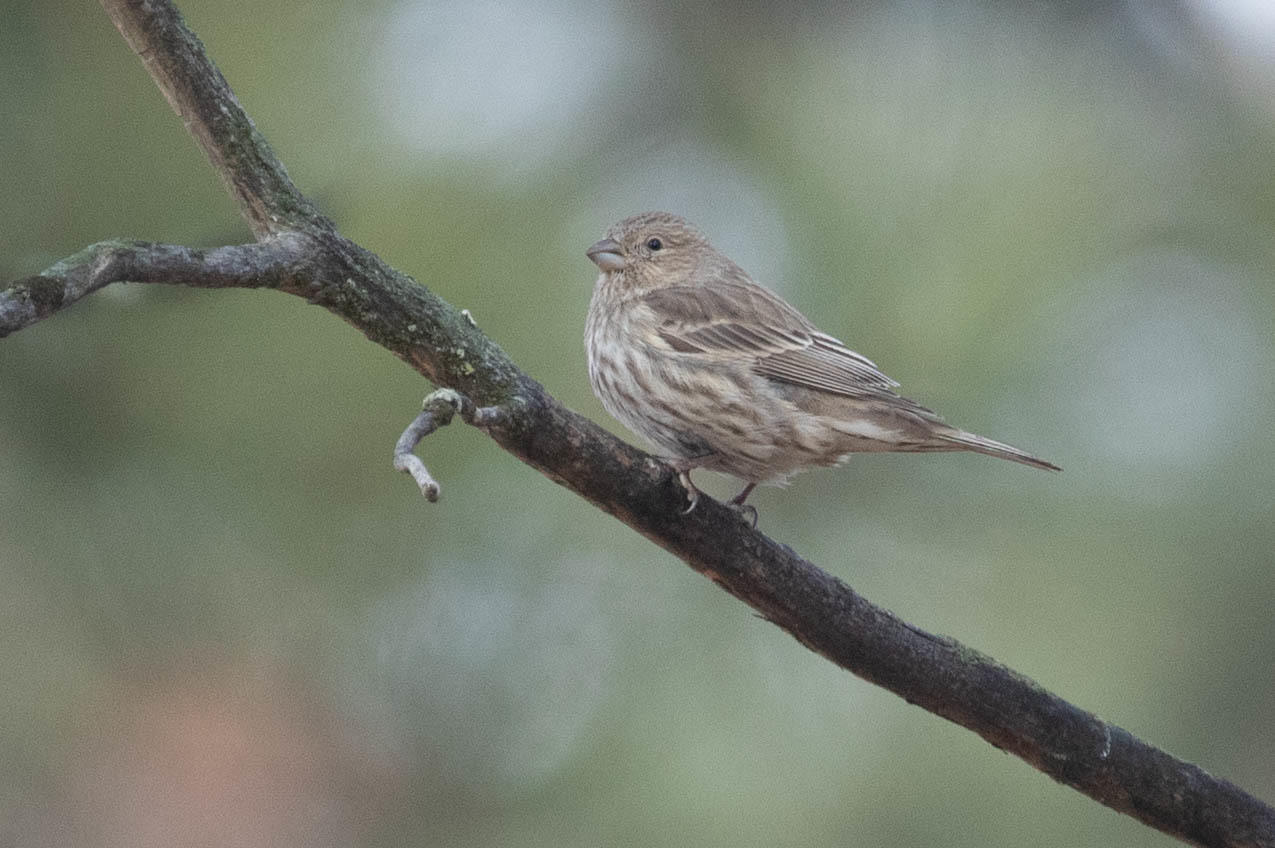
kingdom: Animalia
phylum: Chordata
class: Aves
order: Passeriformes
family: Fringillidae
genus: Haemorhous
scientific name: Haemorhous mexicanus
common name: House finch
